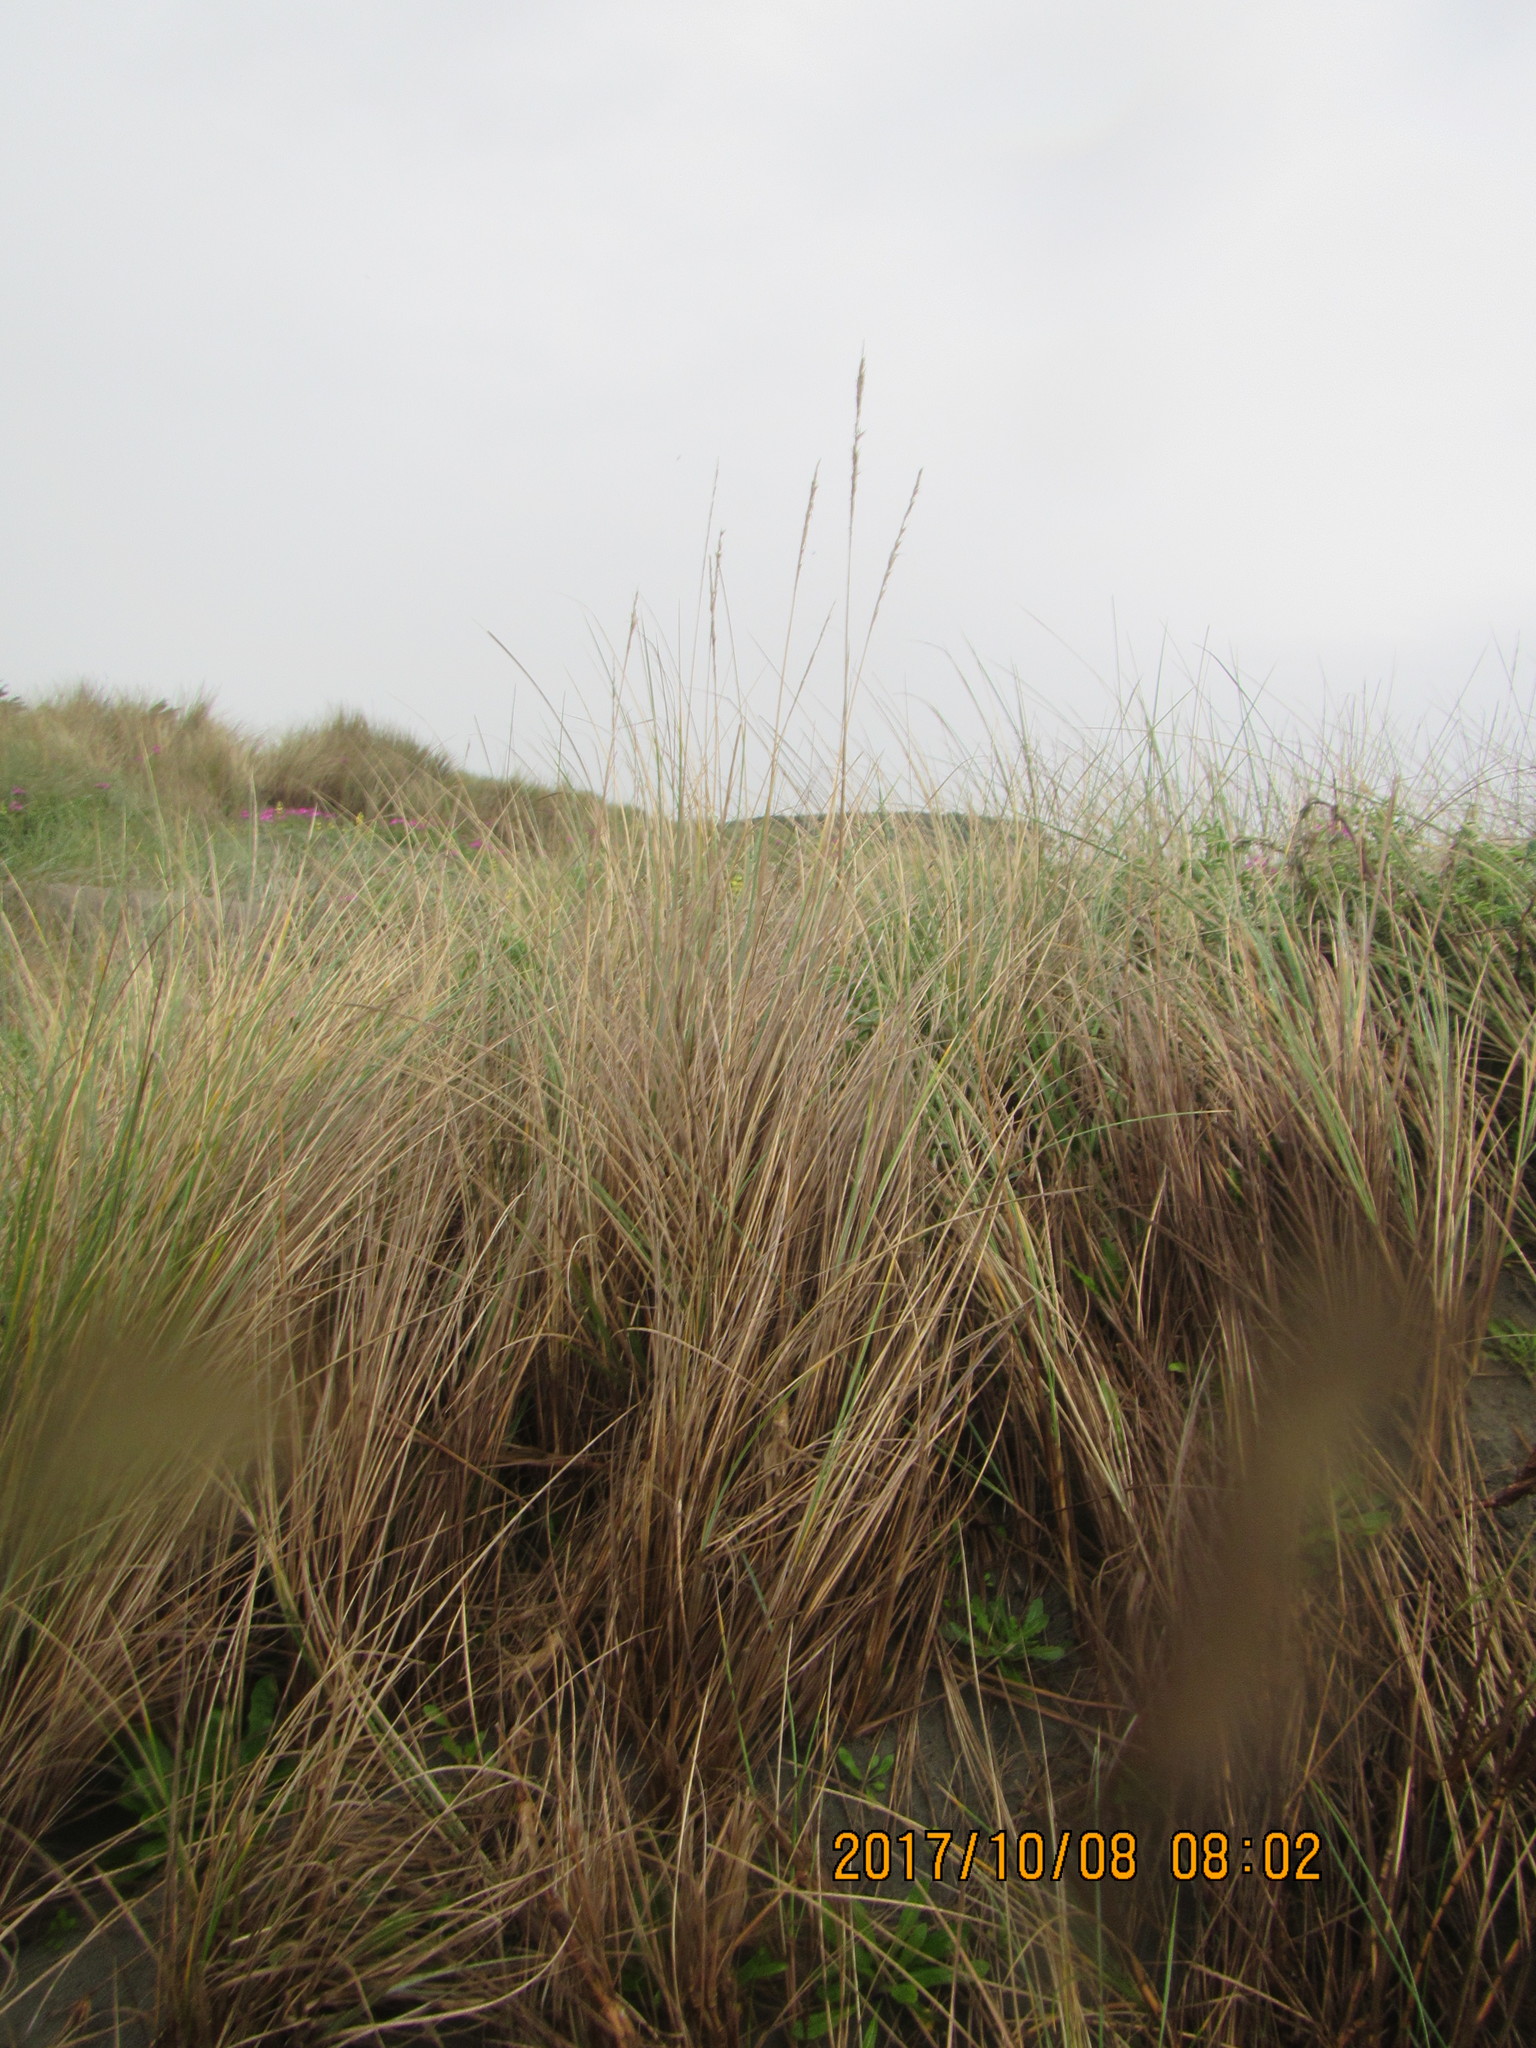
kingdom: Plantae
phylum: Tracheophyta
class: Liliopsida
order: Poales
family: Poaceae
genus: Calamagrostis
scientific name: Calamagrostis arenaria
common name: European beachgrass
